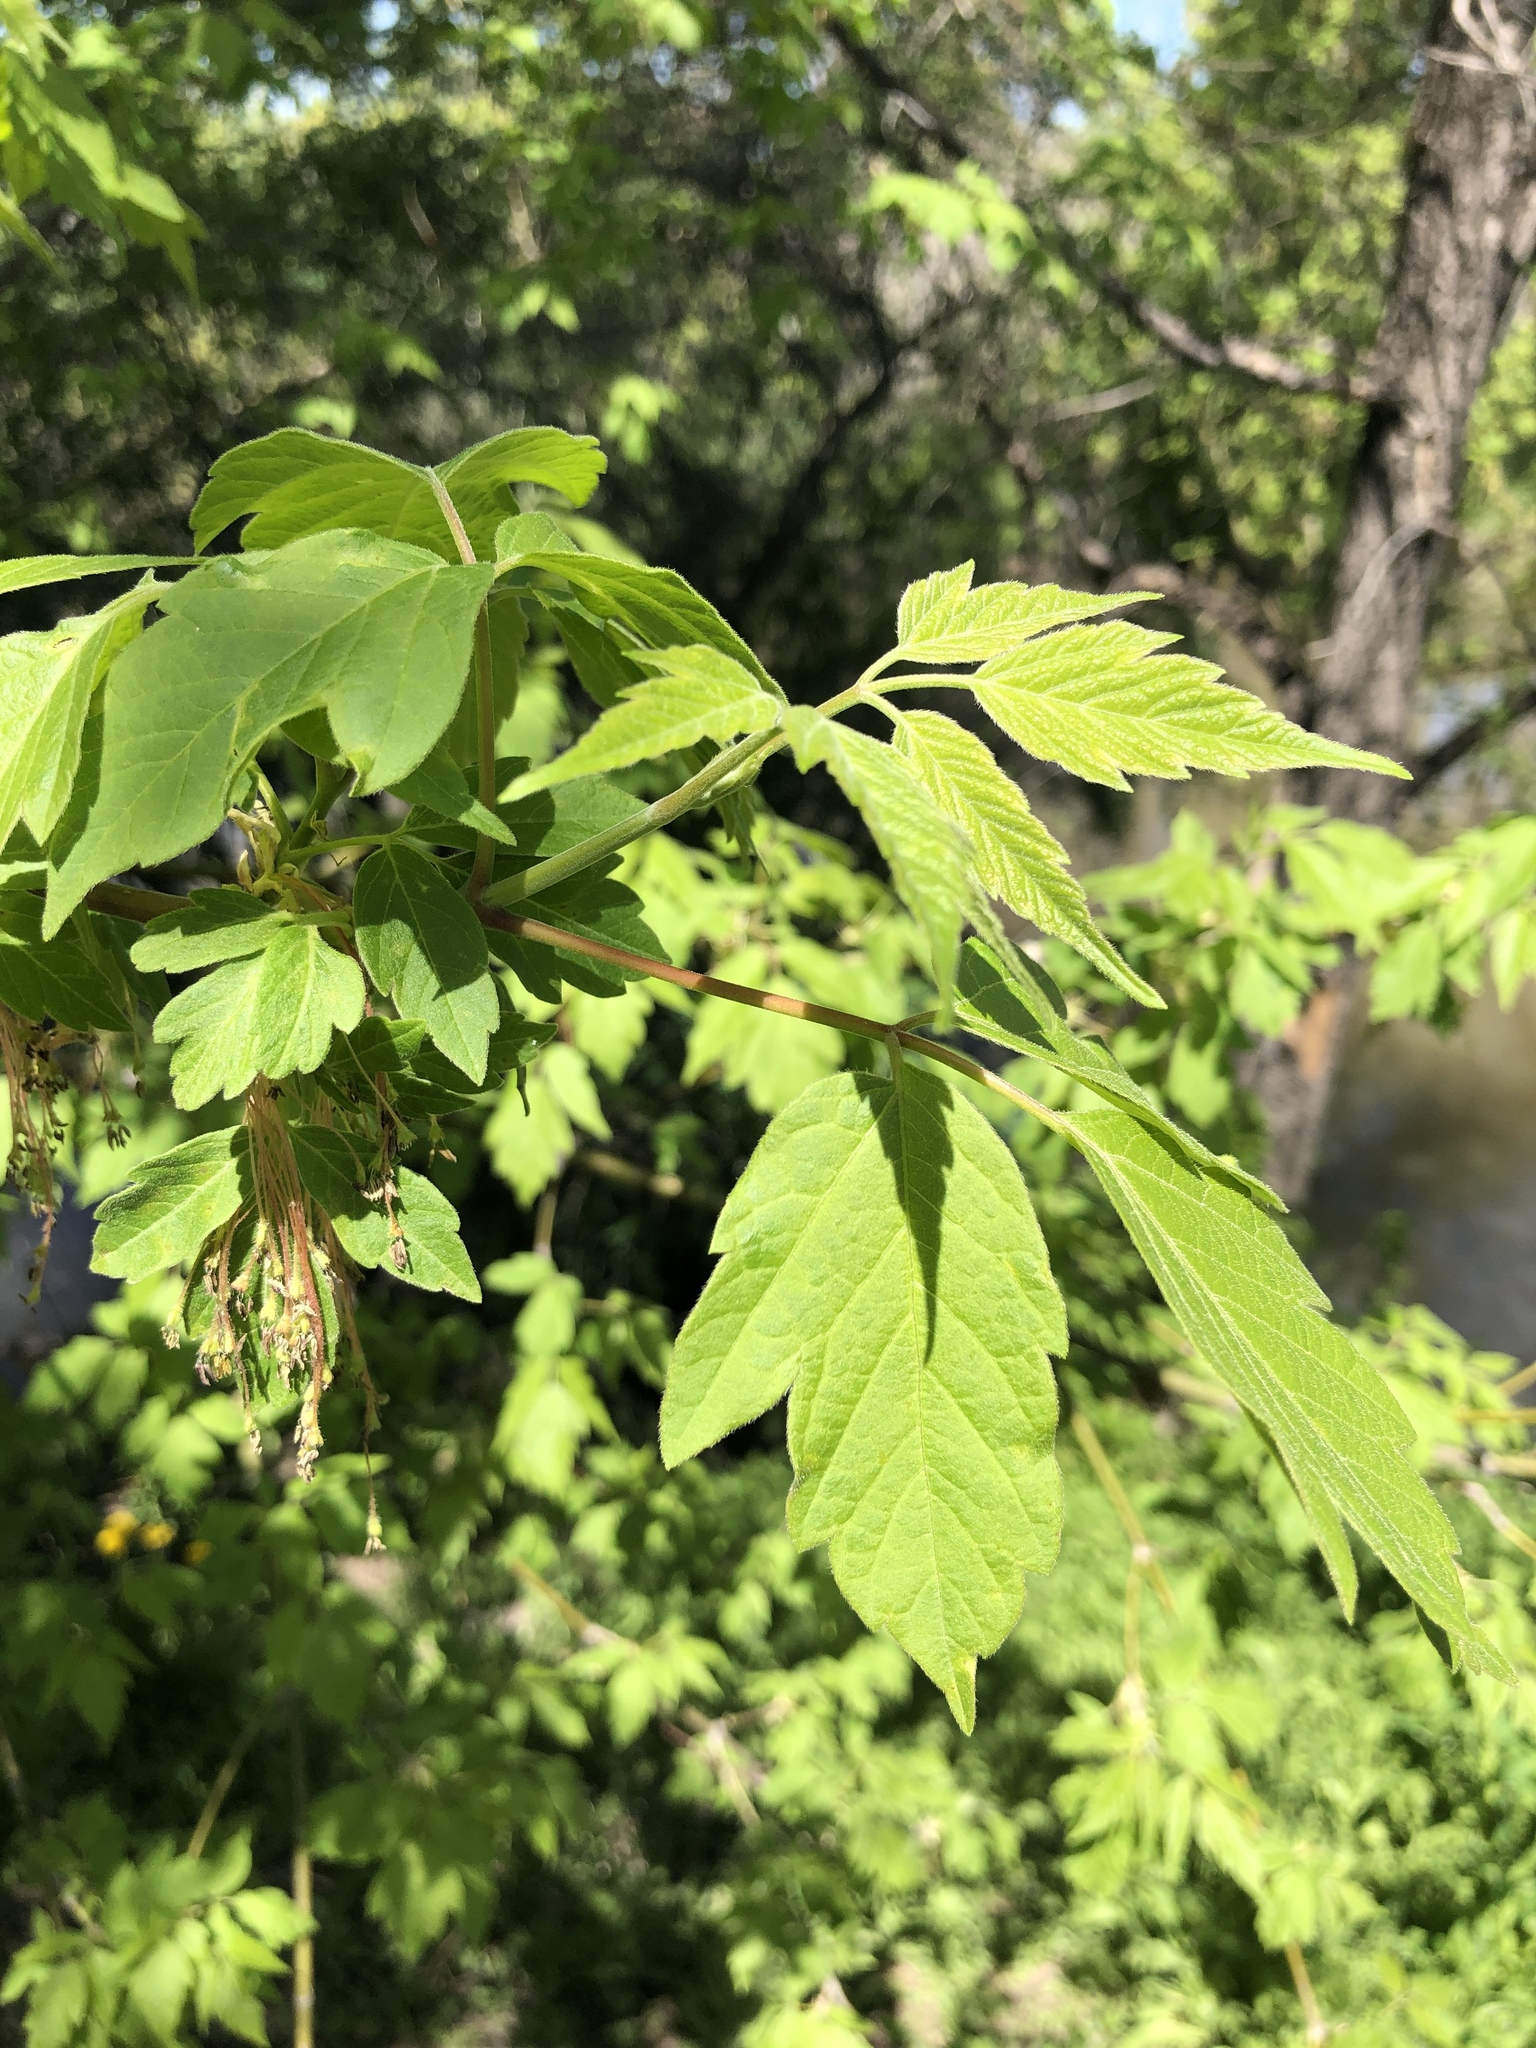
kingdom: Plantae
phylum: Tracheophyta
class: Magnoliopsida
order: Sapindales
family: Sapindaceae
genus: Acer
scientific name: Acer negundo
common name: Ashleaf maple
